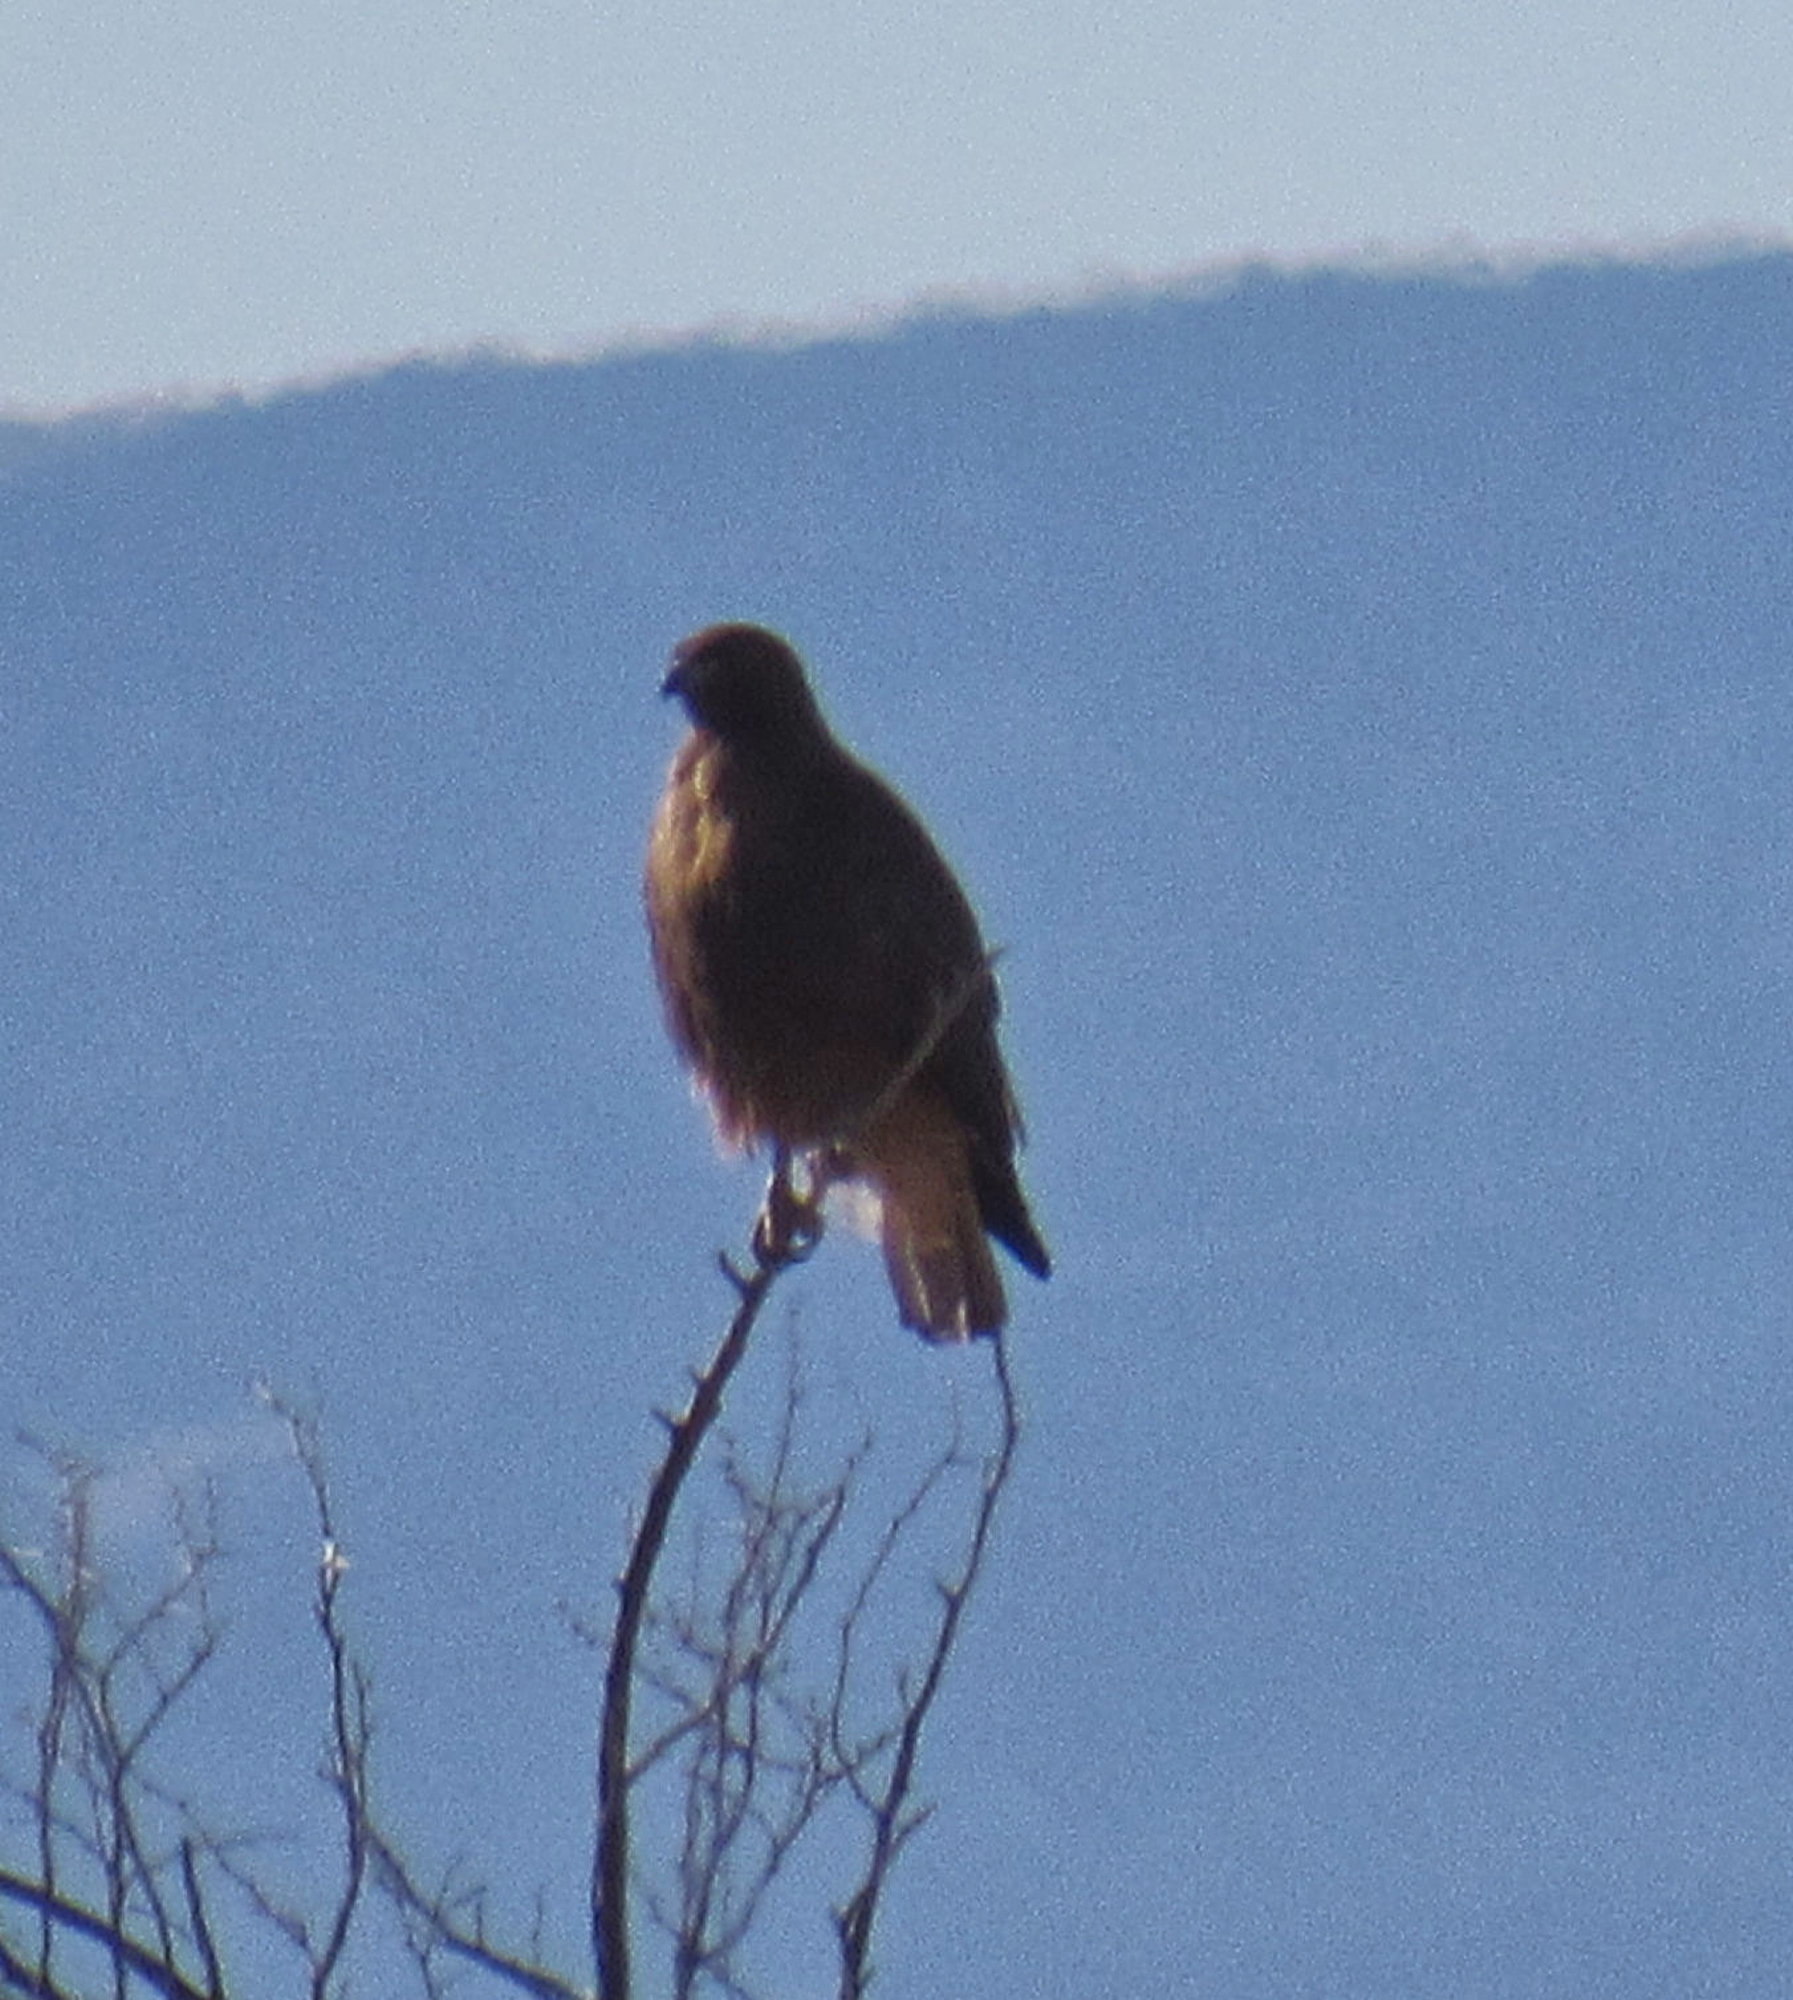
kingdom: Animalia
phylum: Chordata
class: Aves
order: Accipitriformes
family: Accipitridae
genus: Buteo
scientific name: Buteo jamaicensis
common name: Red-tailed hawk
